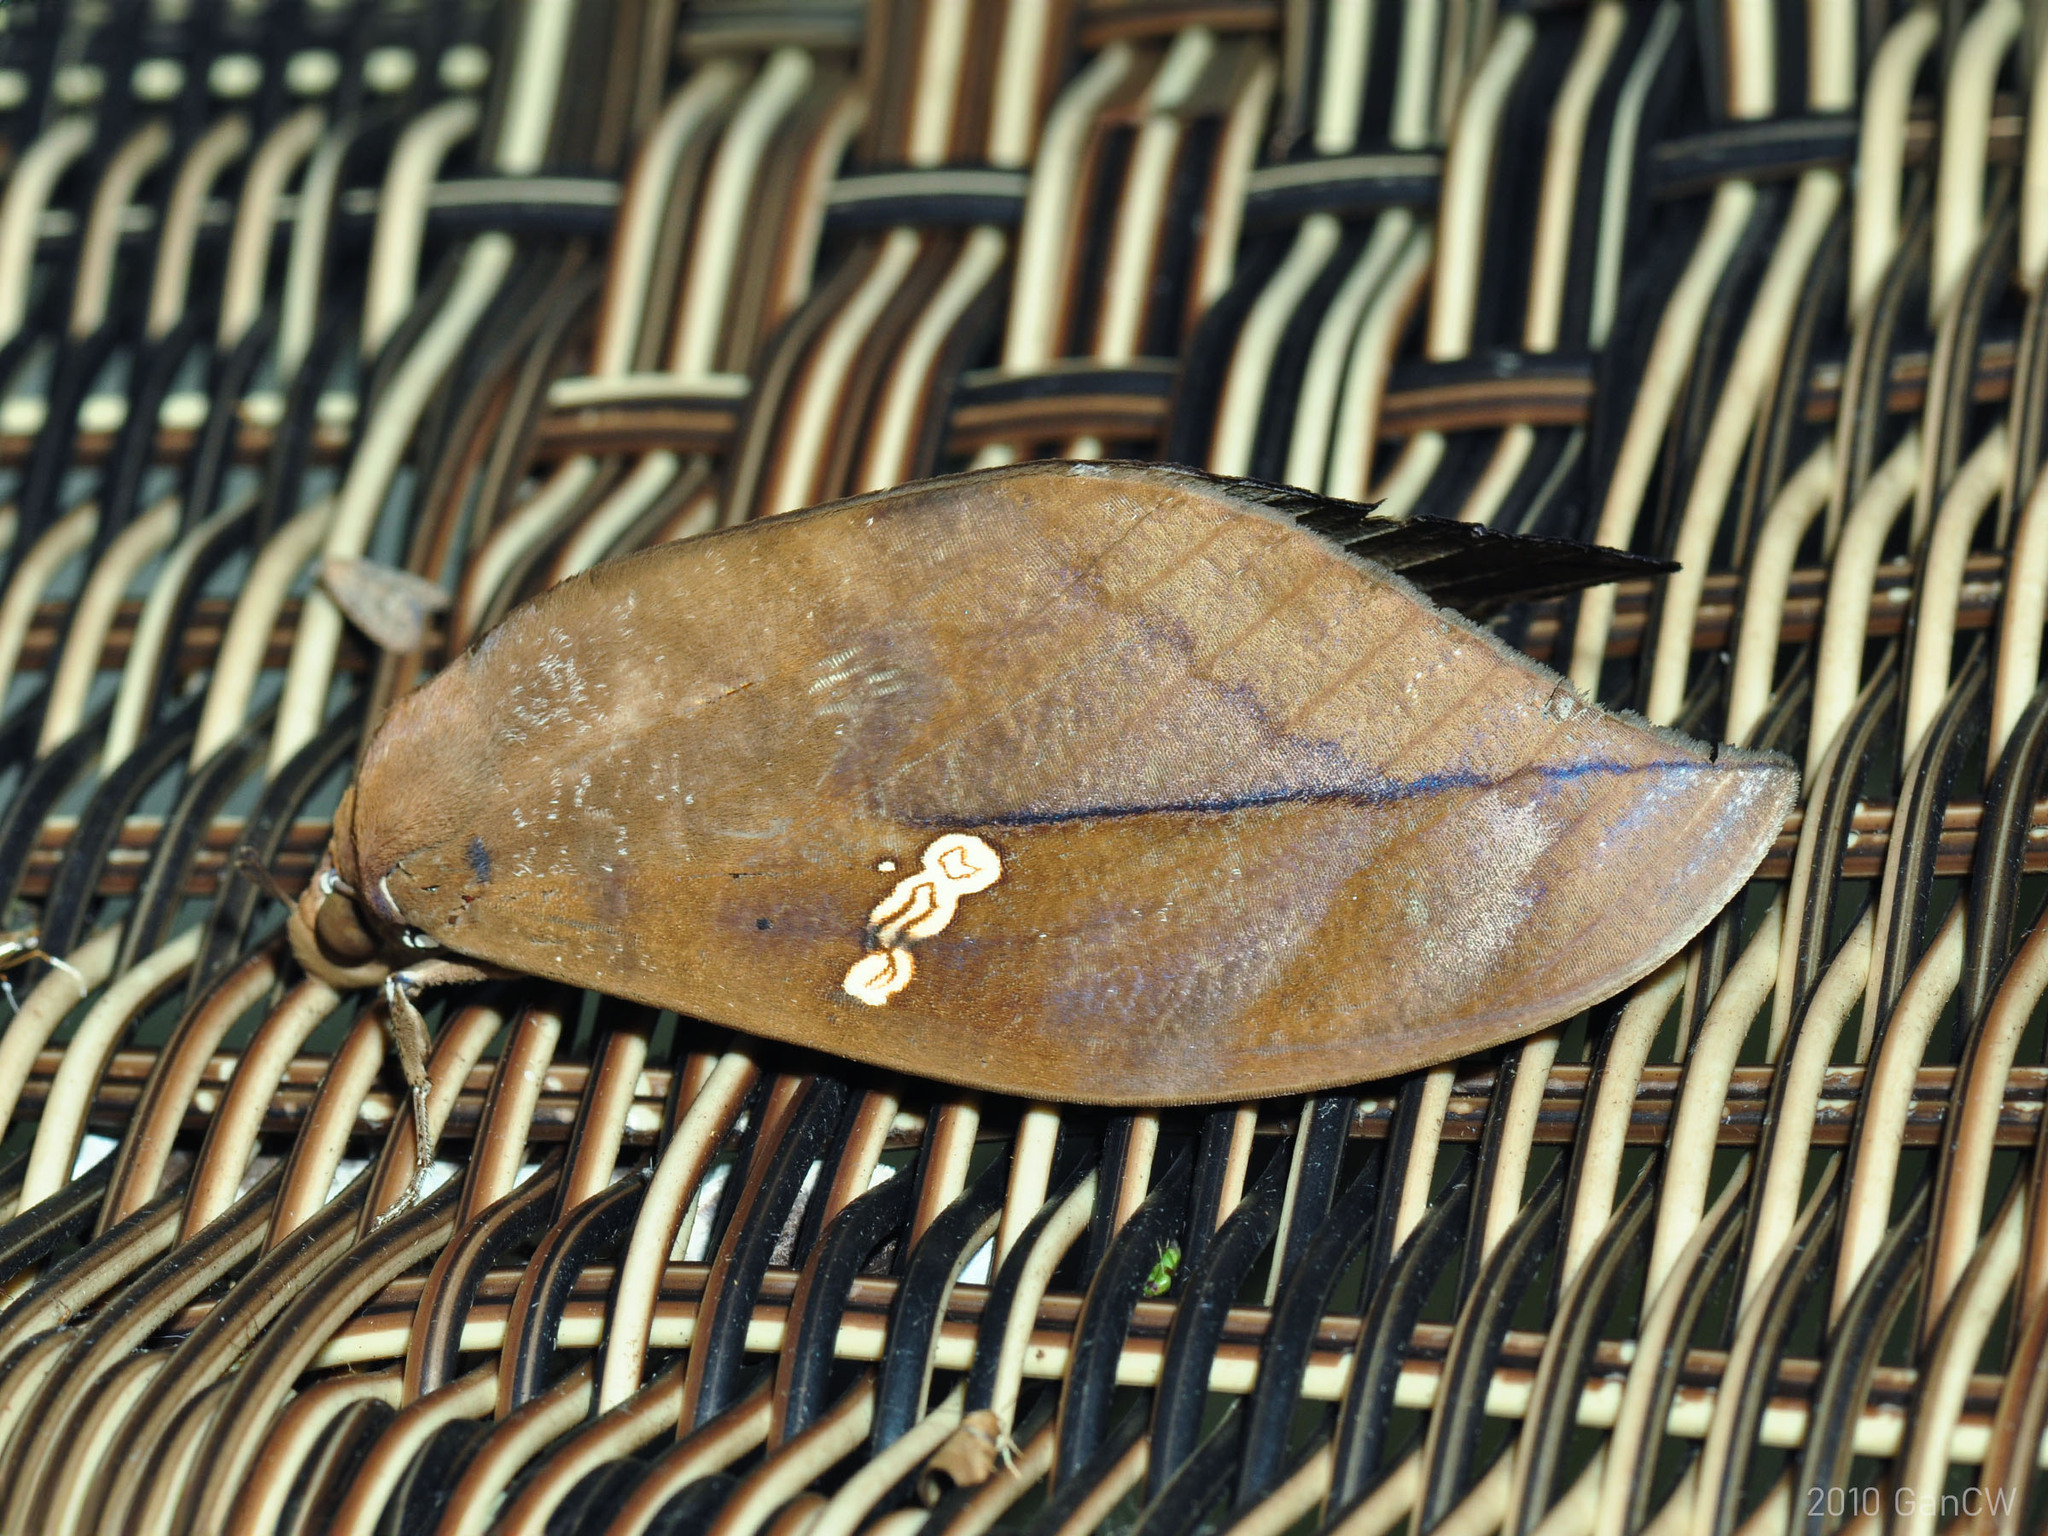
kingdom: Animalia
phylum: Arthropoda
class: Insecta
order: Lepidoptera
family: Erebidae
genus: Phyllodes
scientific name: Phyllodes staudingeri
